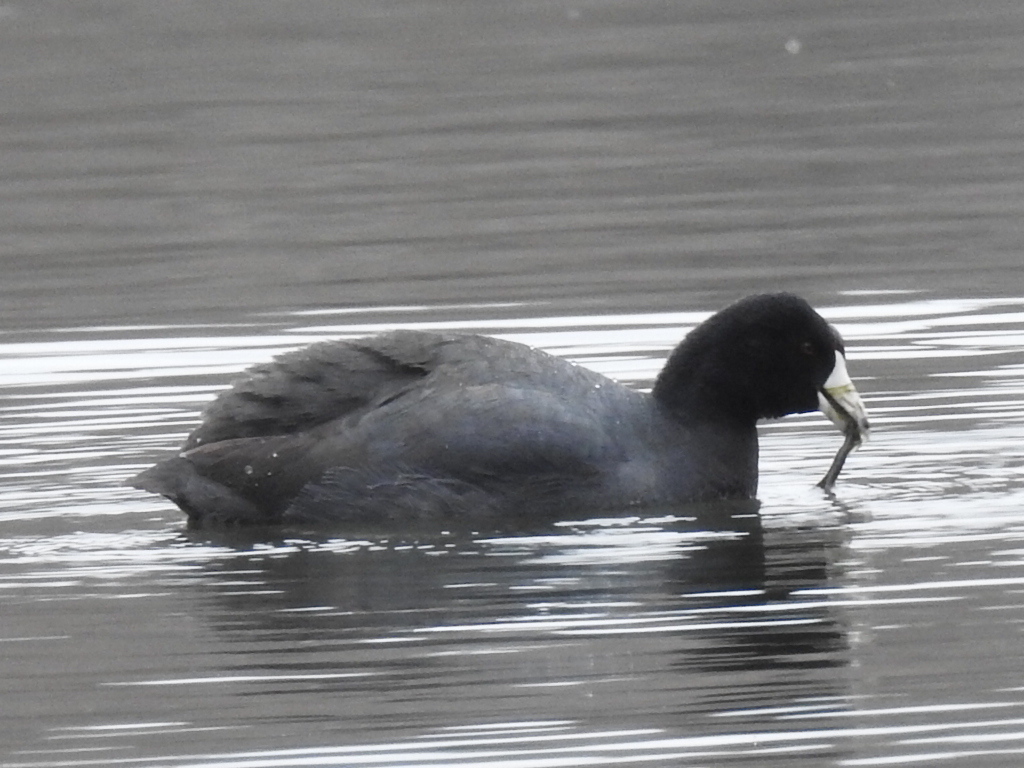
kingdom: Animalia
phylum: Chordata
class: Aves
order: Gruiformes
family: Rallidae
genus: Fulica
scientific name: Fulica americana
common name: American coot
